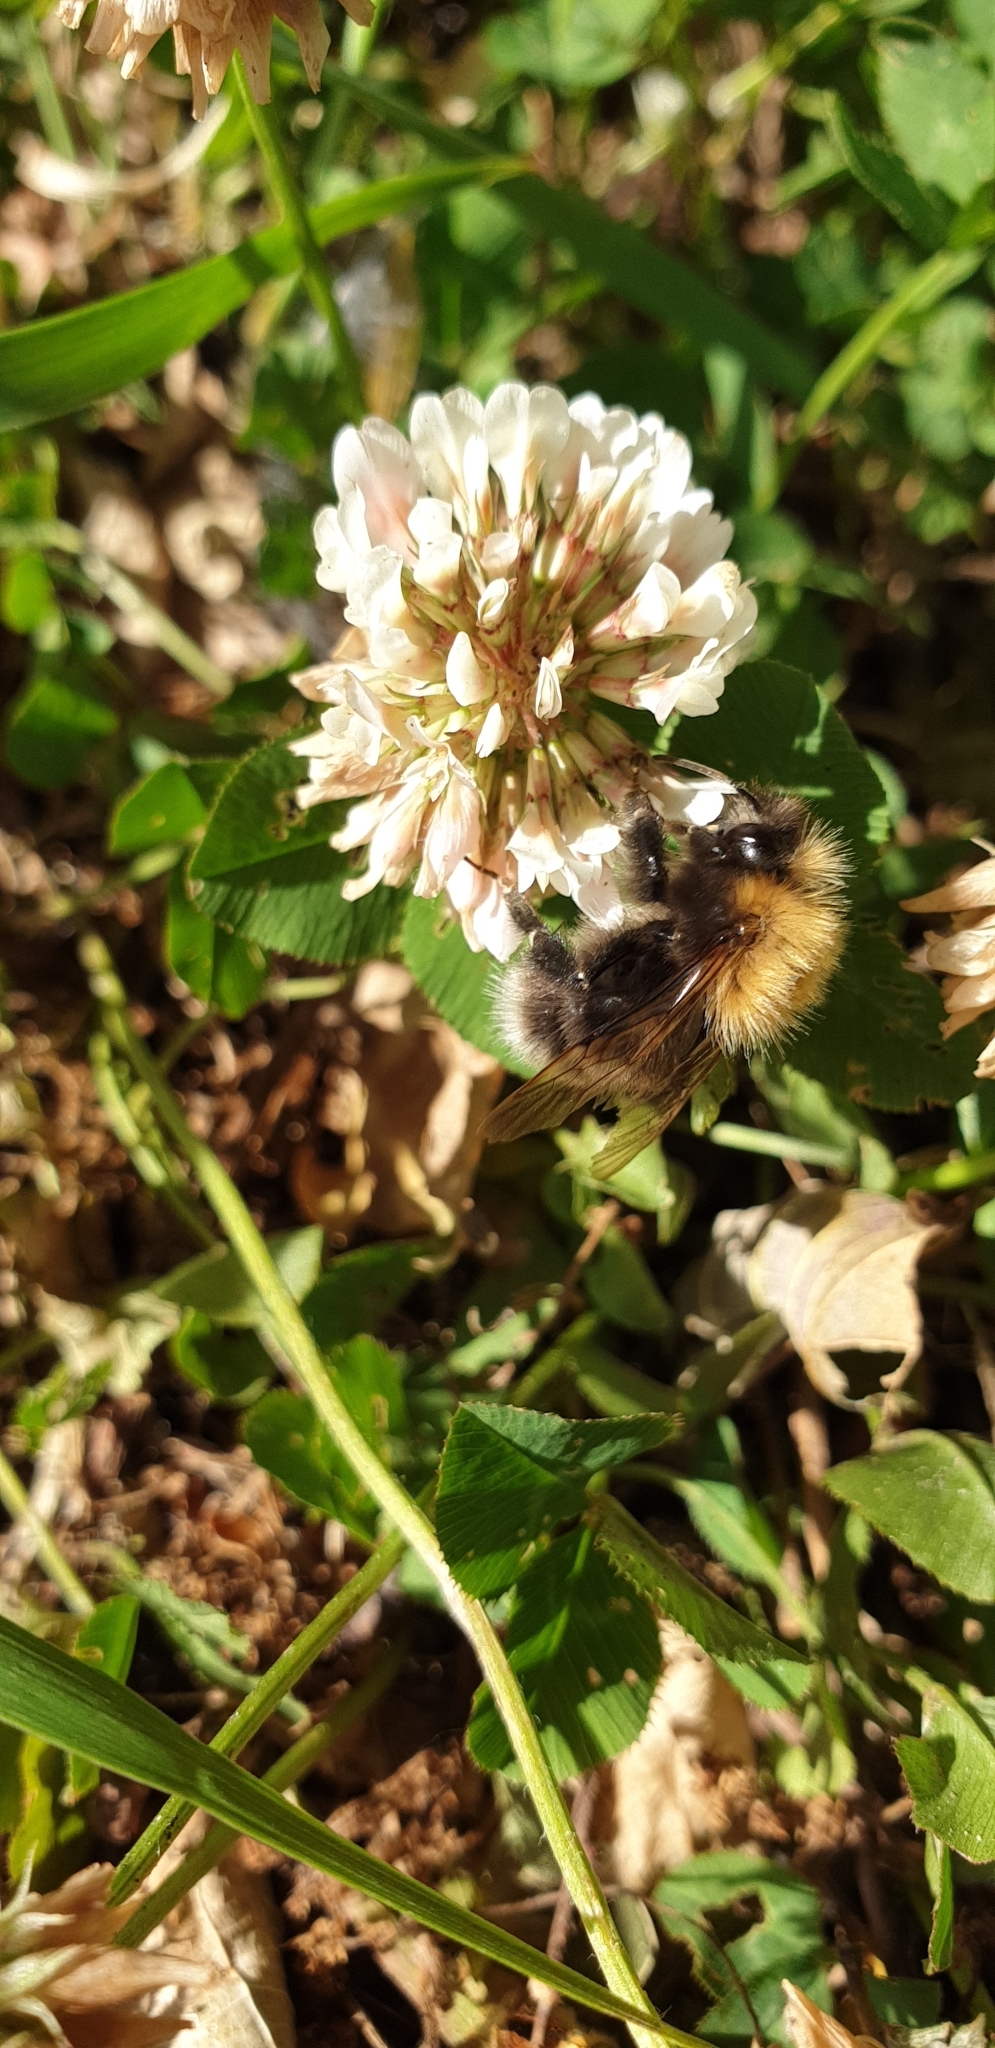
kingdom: Animalia
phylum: Arthropoda
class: Insecta
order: Hymenoptera
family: Apidae
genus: Bombus
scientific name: Bombus hypnorum
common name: New garden bumblebee
